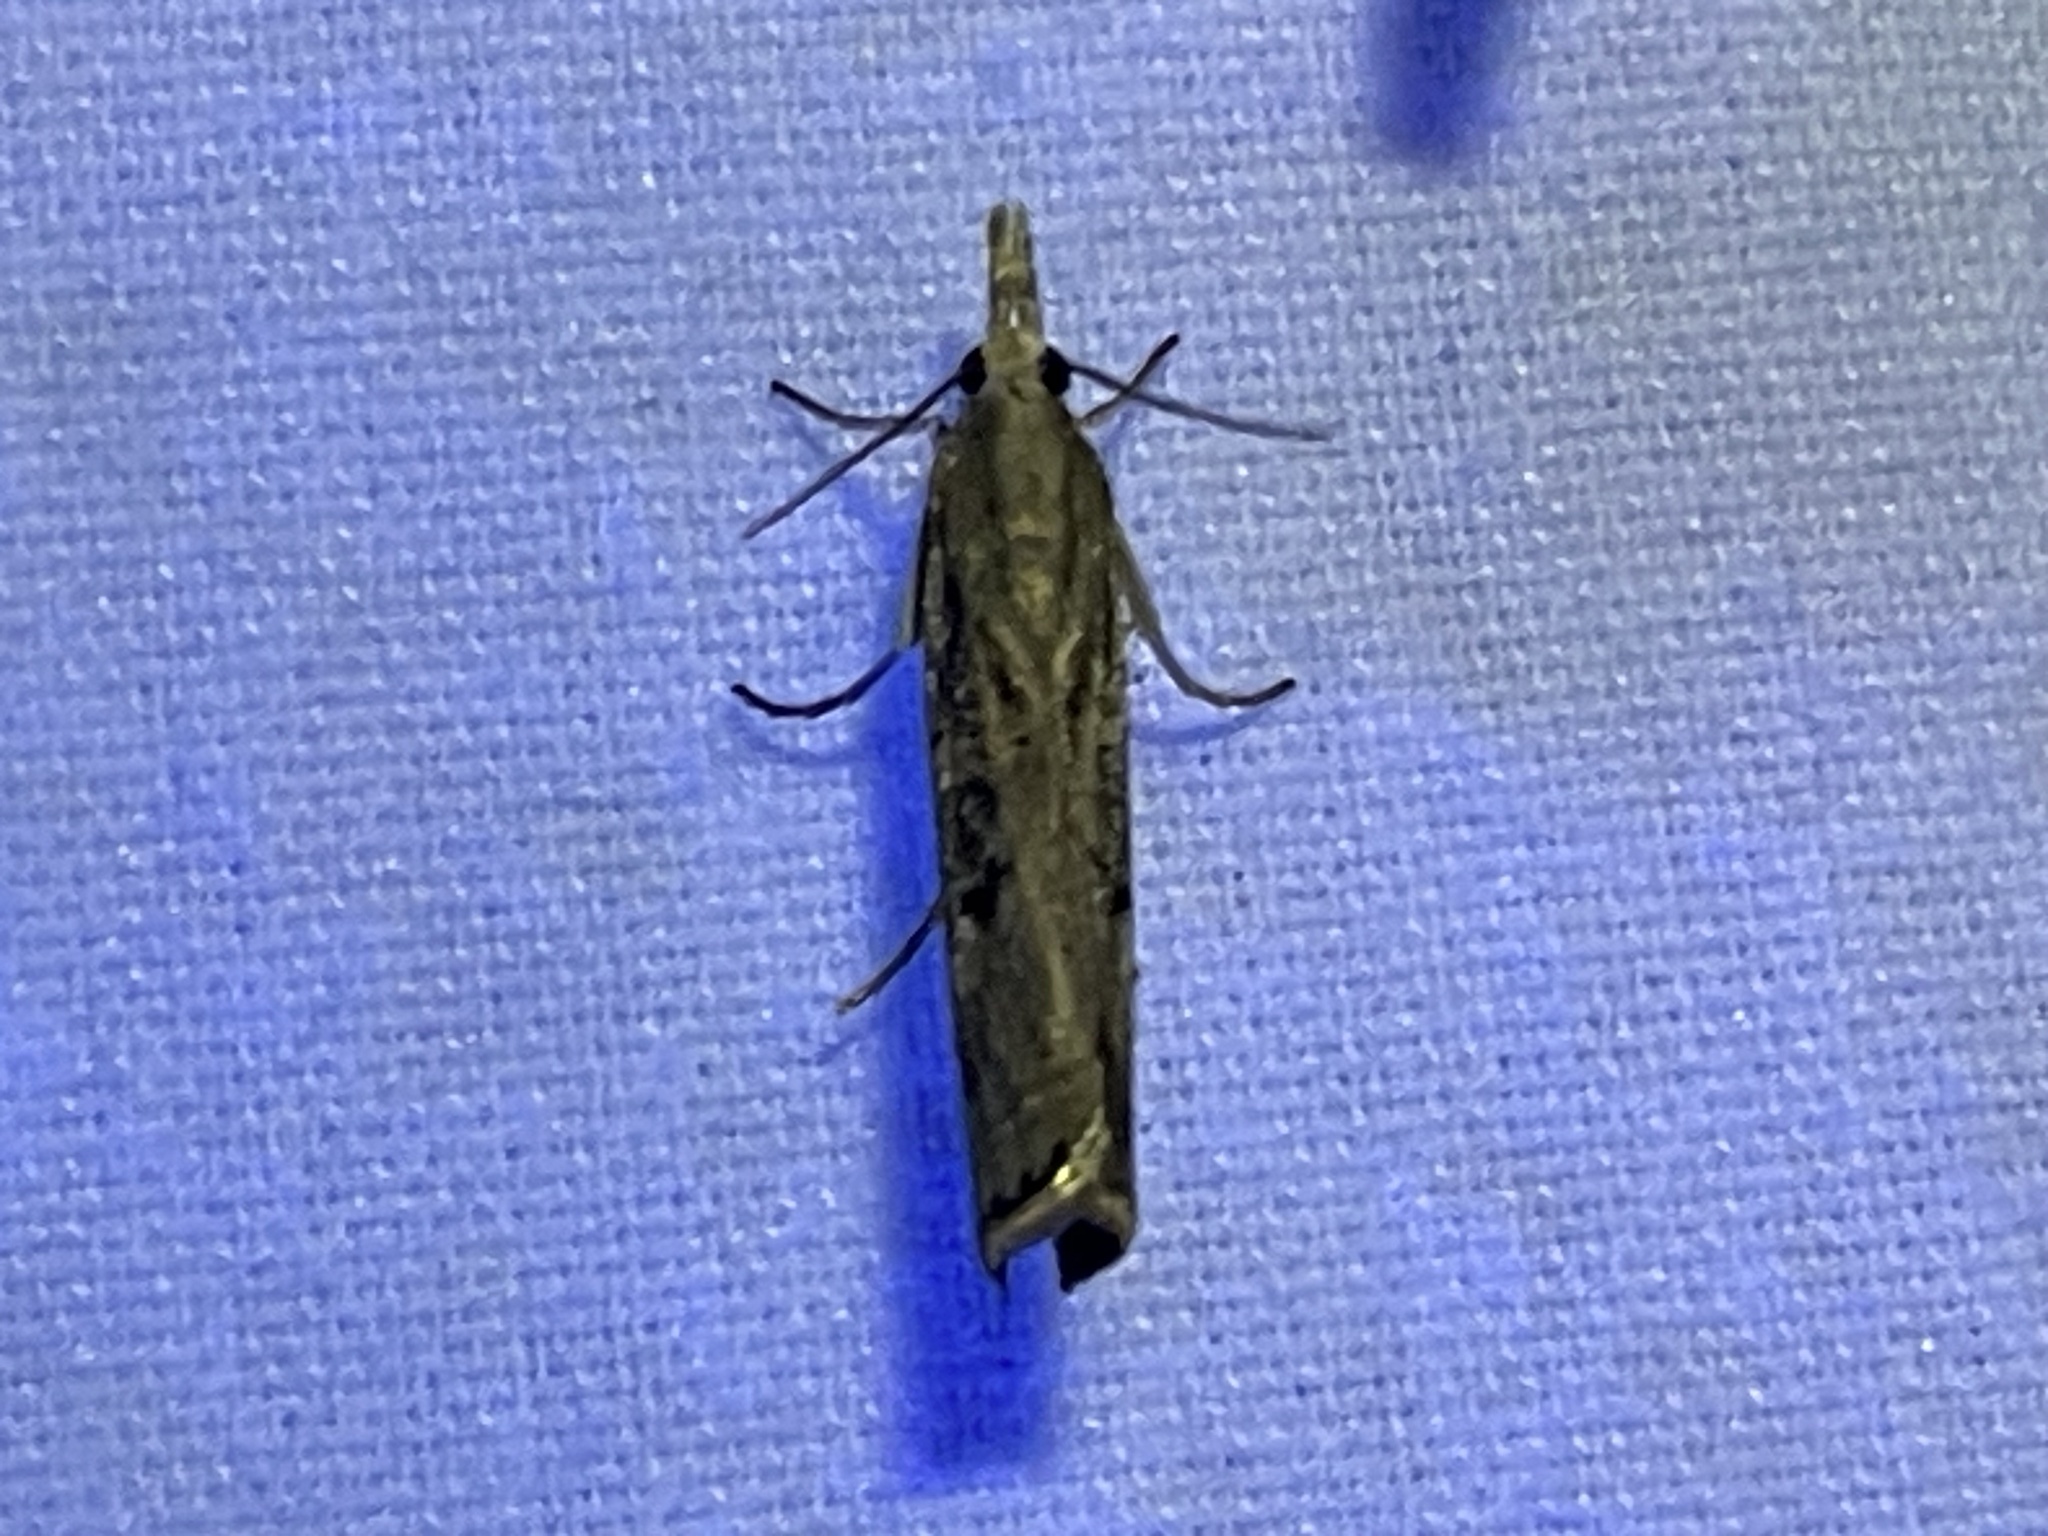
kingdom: Animalia
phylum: Arthropoda
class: Insecta
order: Lepidoptera
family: Crambidae
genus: Parapediasia
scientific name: Parapediasia teterellus
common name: Bluegrass webworm moth
